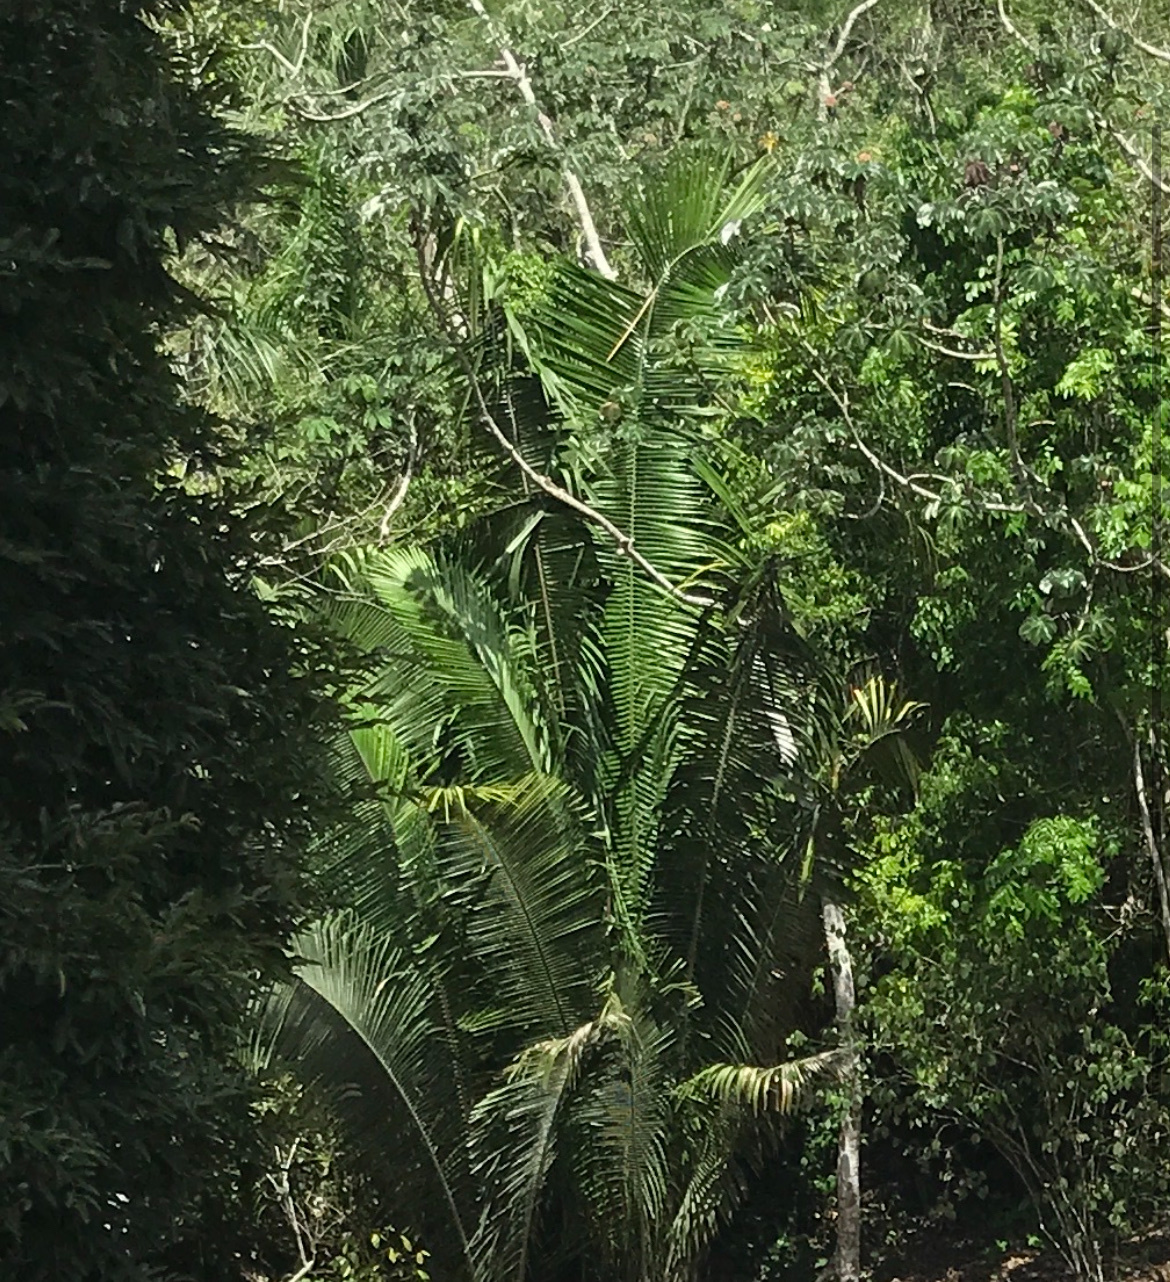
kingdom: Plantae
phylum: Tracheophyta
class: Liliopsida
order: Arecales
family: Arecaceae
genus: Attalea
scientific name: Attalea cohune
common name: Cohune palm
